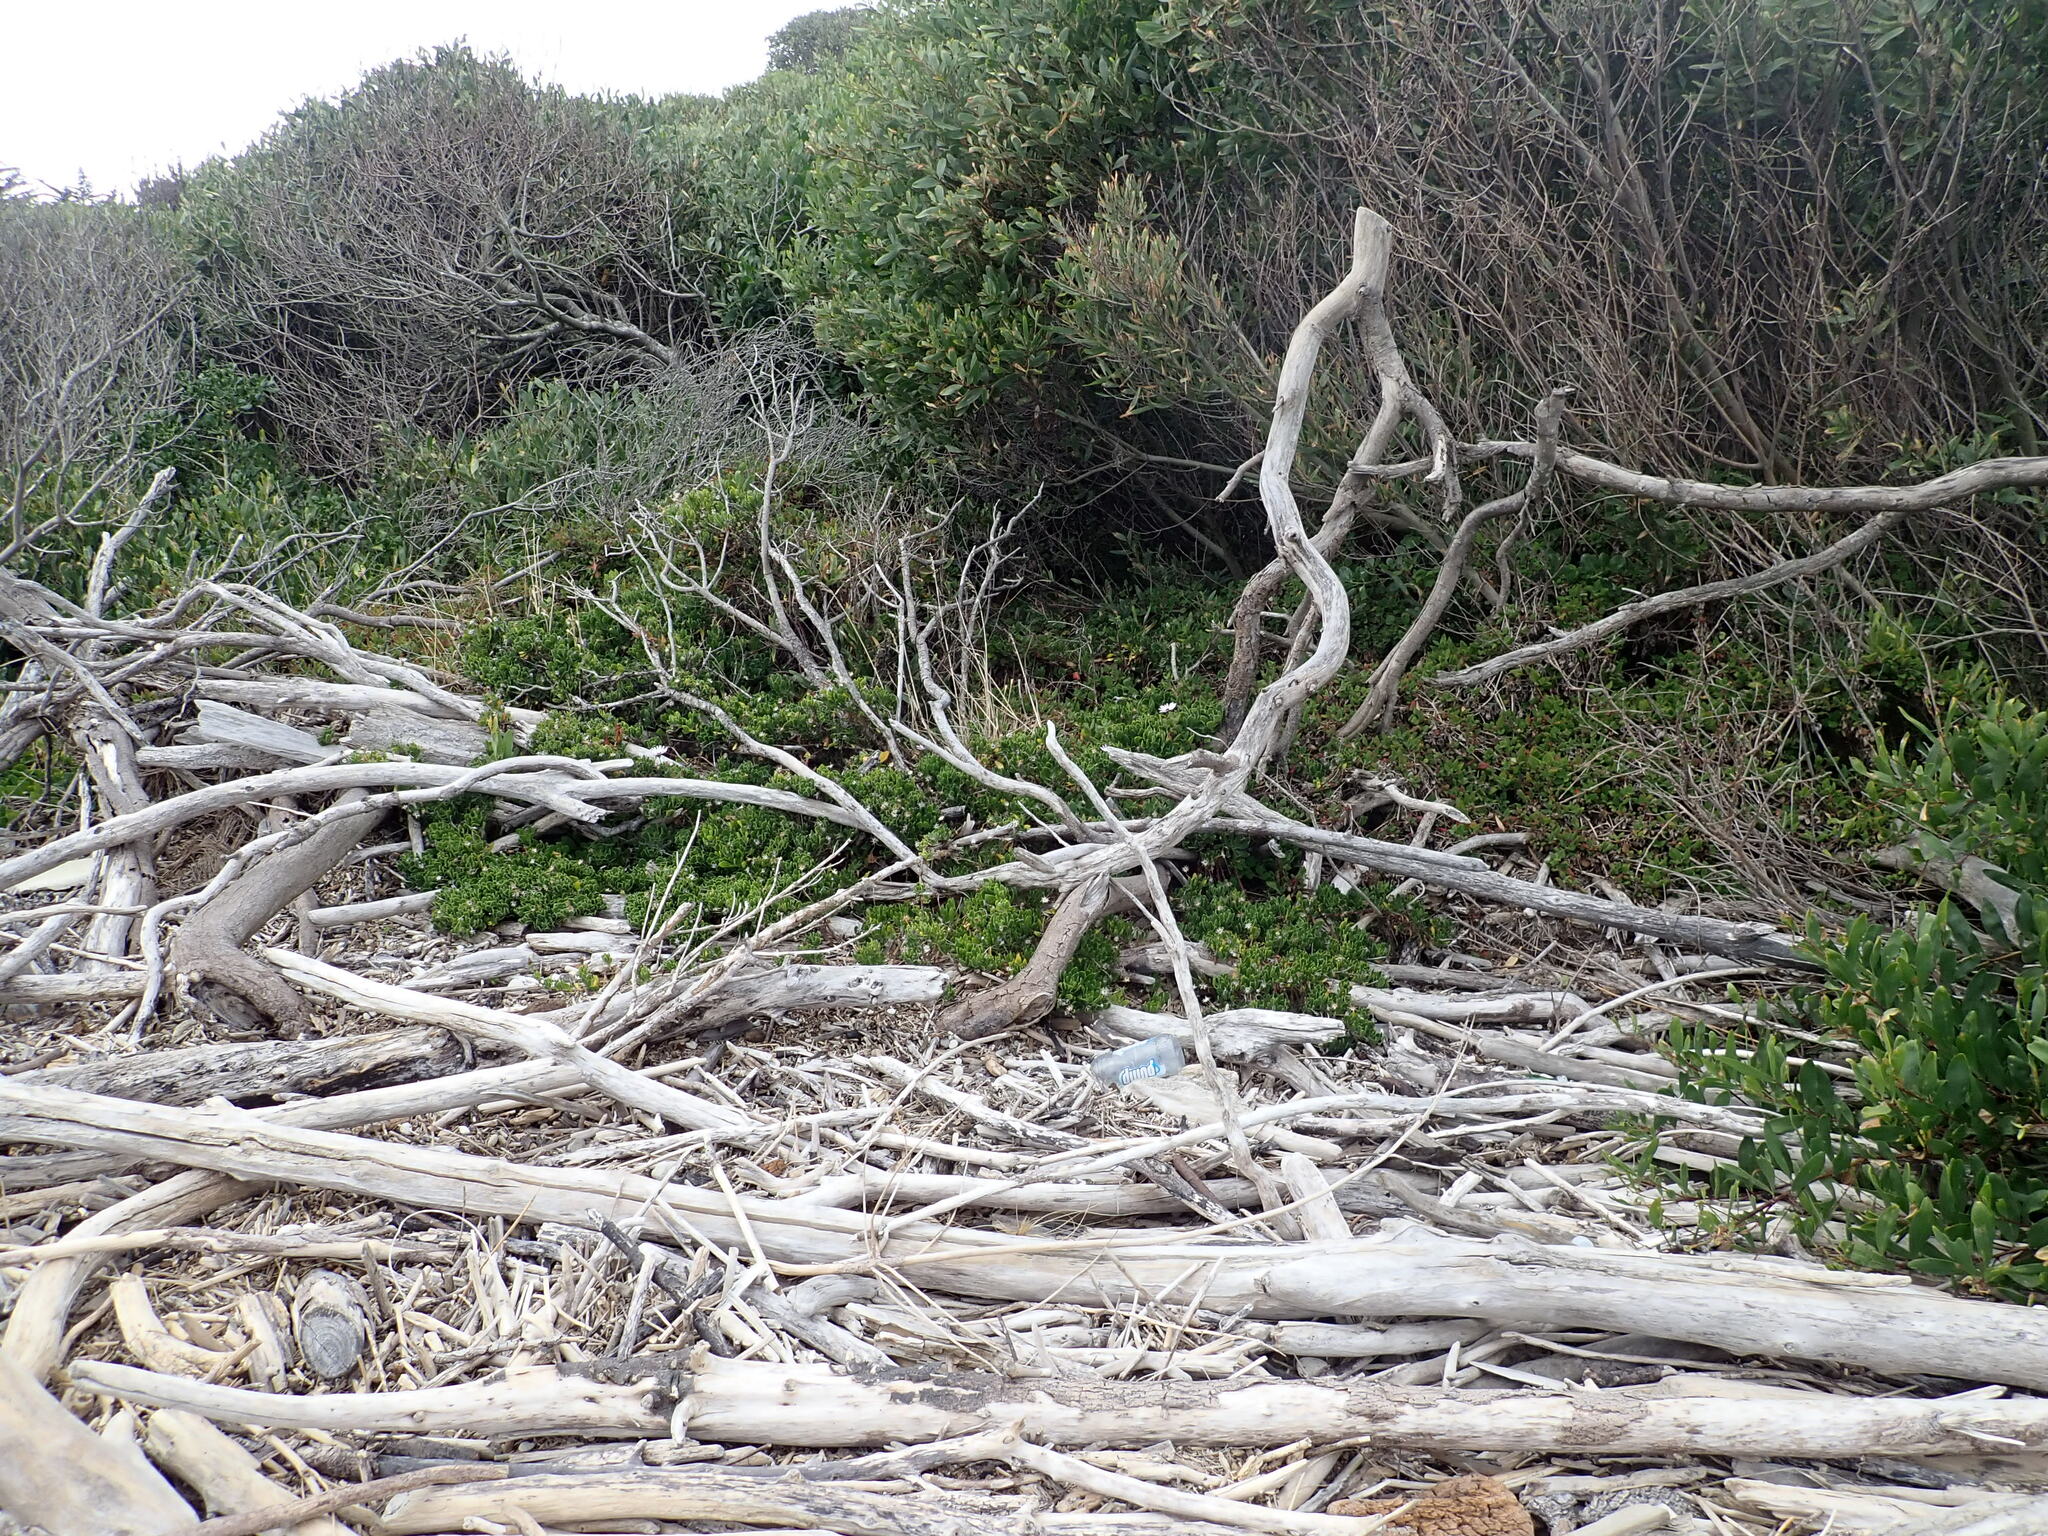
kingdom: Plantae
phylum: Tracheophyta
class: Magnoliopsida
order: Asterales
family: Asteraceae
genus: Dimorphotheca
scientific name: Dimorphotheca fruticosa
